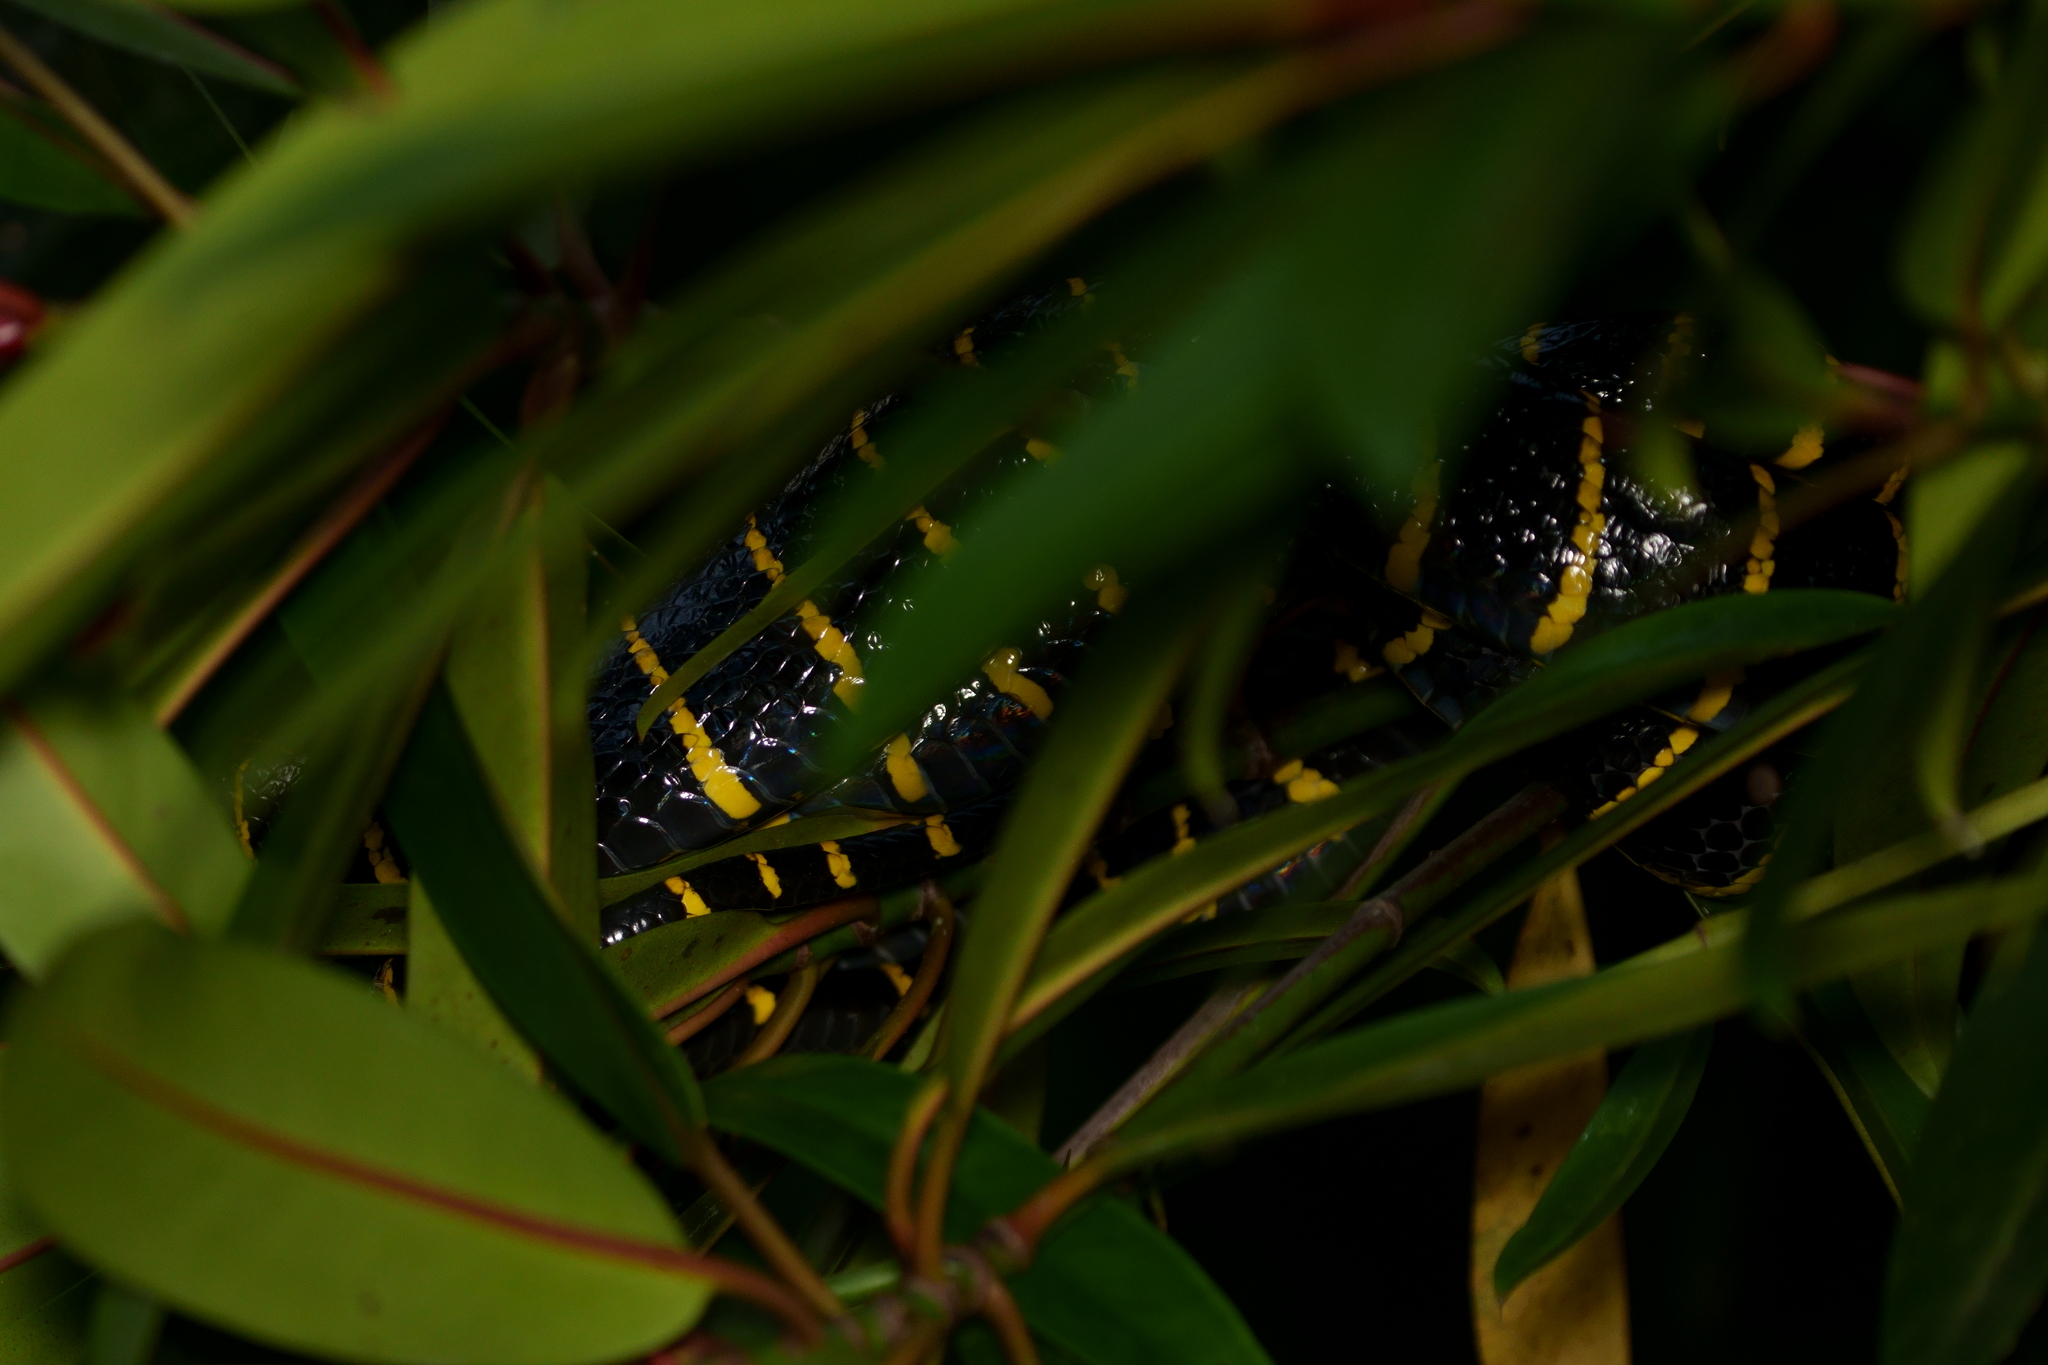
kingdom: Animalia
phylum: Chordata
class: Squamata
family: Colubridae
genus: Boiga
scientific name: Boiga dendrophila
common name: Gold-ringed cat snake
